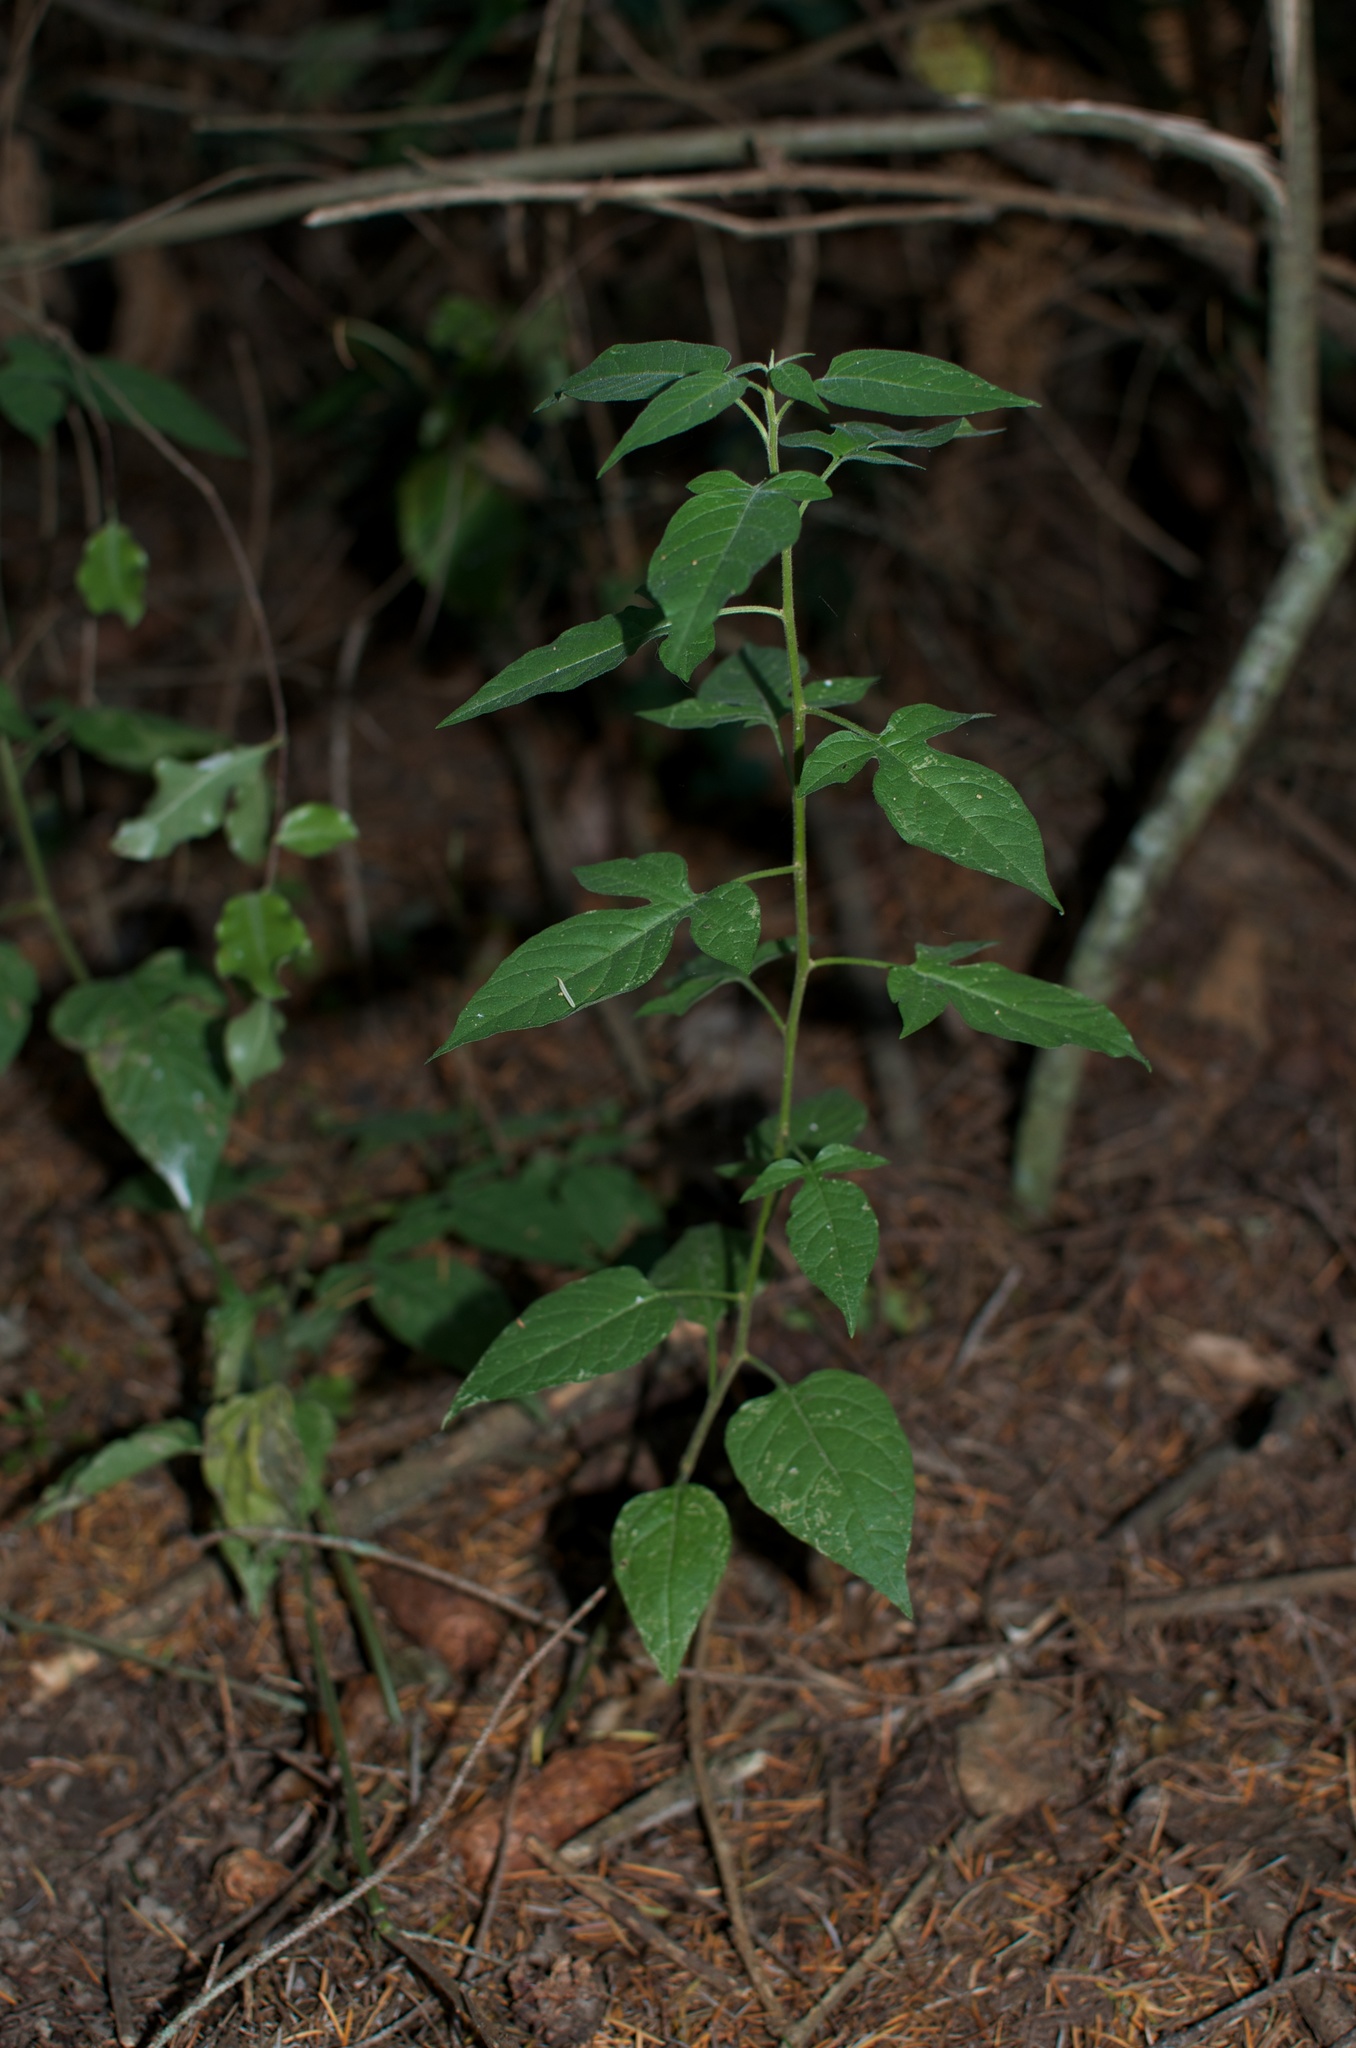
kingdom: Plantae
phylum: Tracheophyta
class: Magnoliopsida
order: Solanales
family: Solanaceae
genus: Solanum
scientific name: Solanum dulcamara
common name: Climbing nightshade
